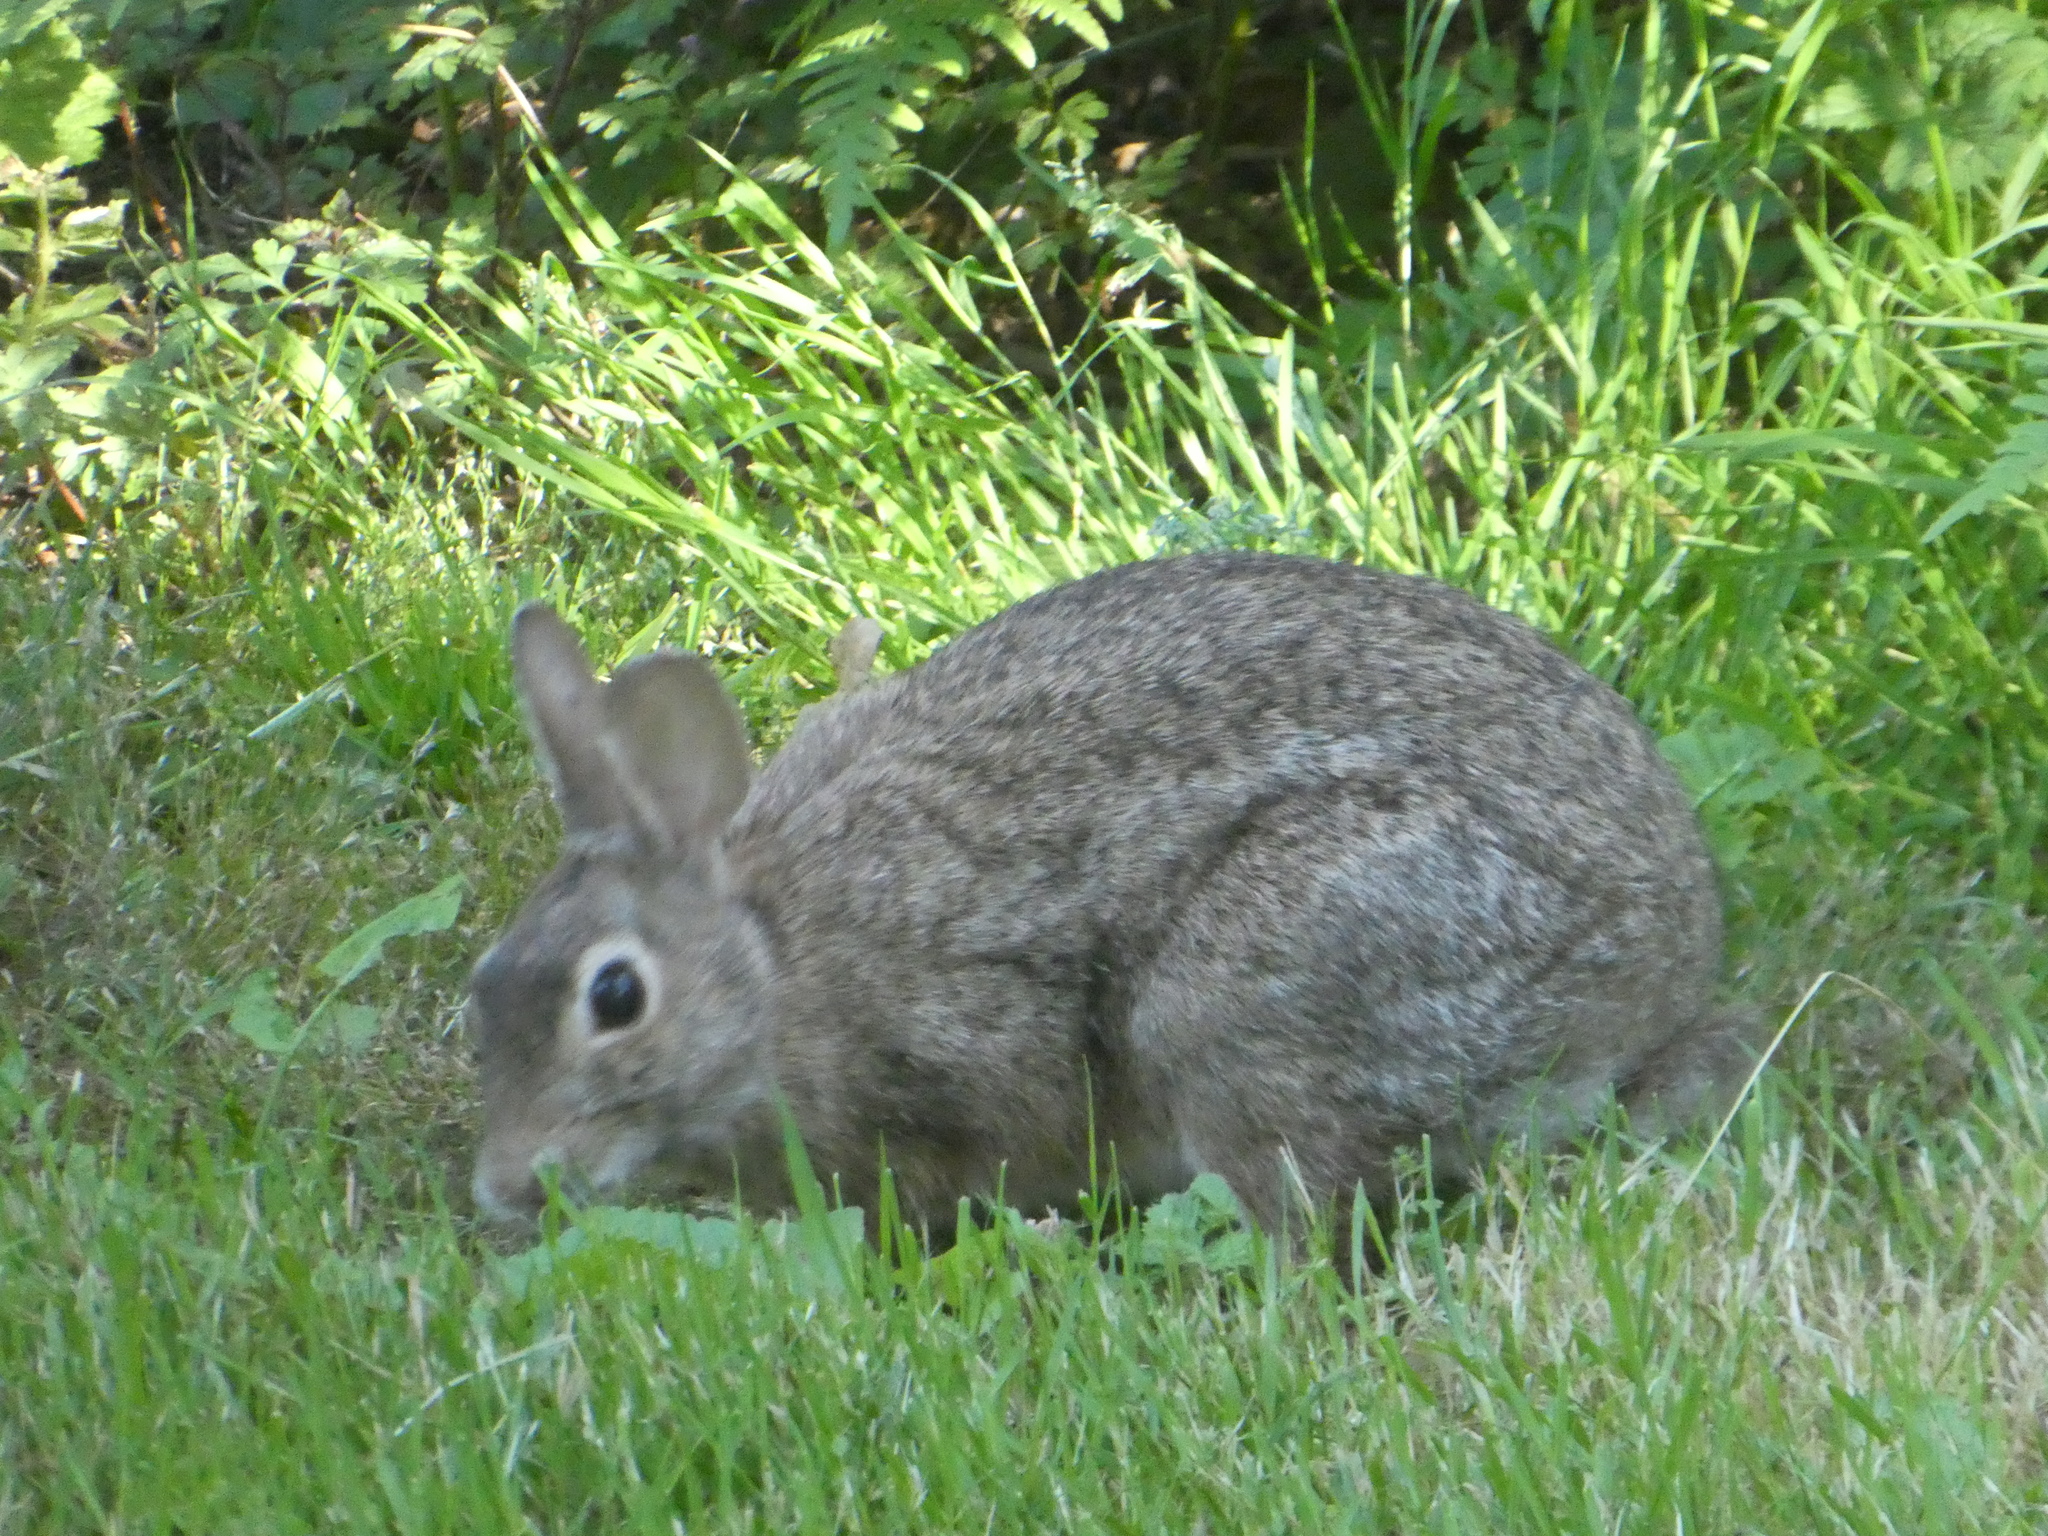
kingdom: Animalia
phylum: Chordata
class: Mammalia
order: Lagomorpha
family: Leporidae
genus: Sylvilagus
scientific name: Sylvilagus floridanus
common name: Eastern cottontail
